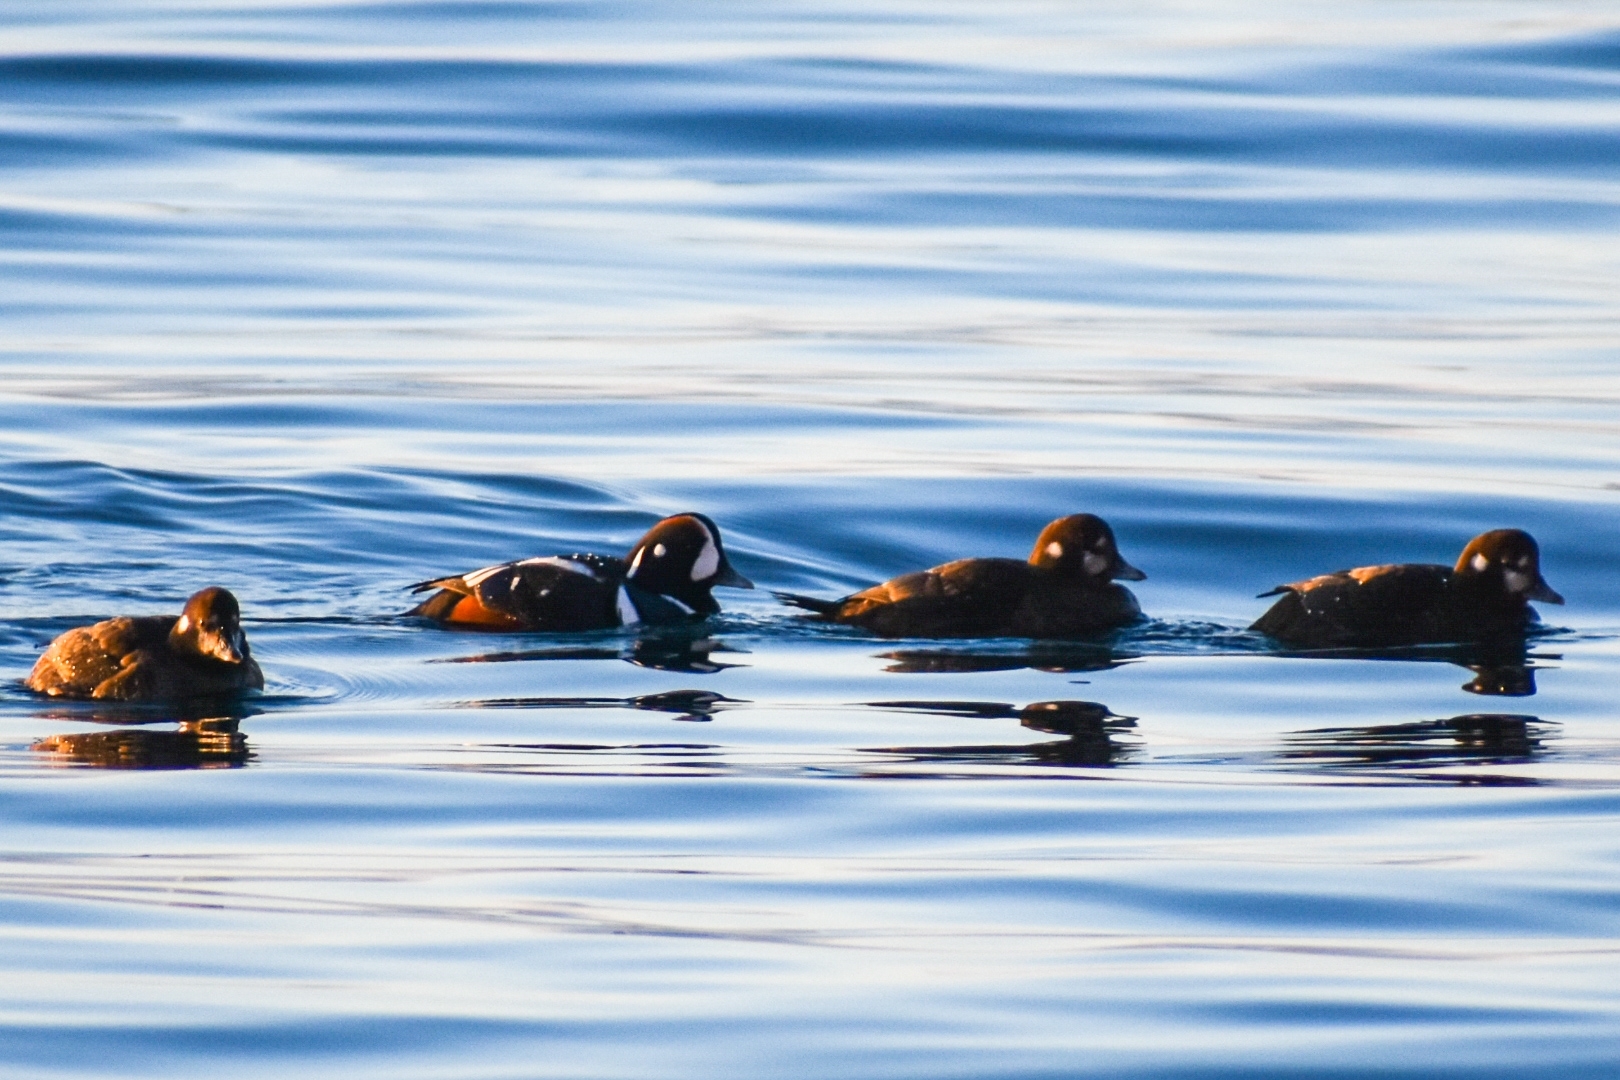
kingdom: Animalia
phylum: Chordata
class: Aves
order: Anseriformes
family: Anatidae
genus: Histrionicus
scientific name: Histrionicus histrionicus
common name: Harlequin duck
